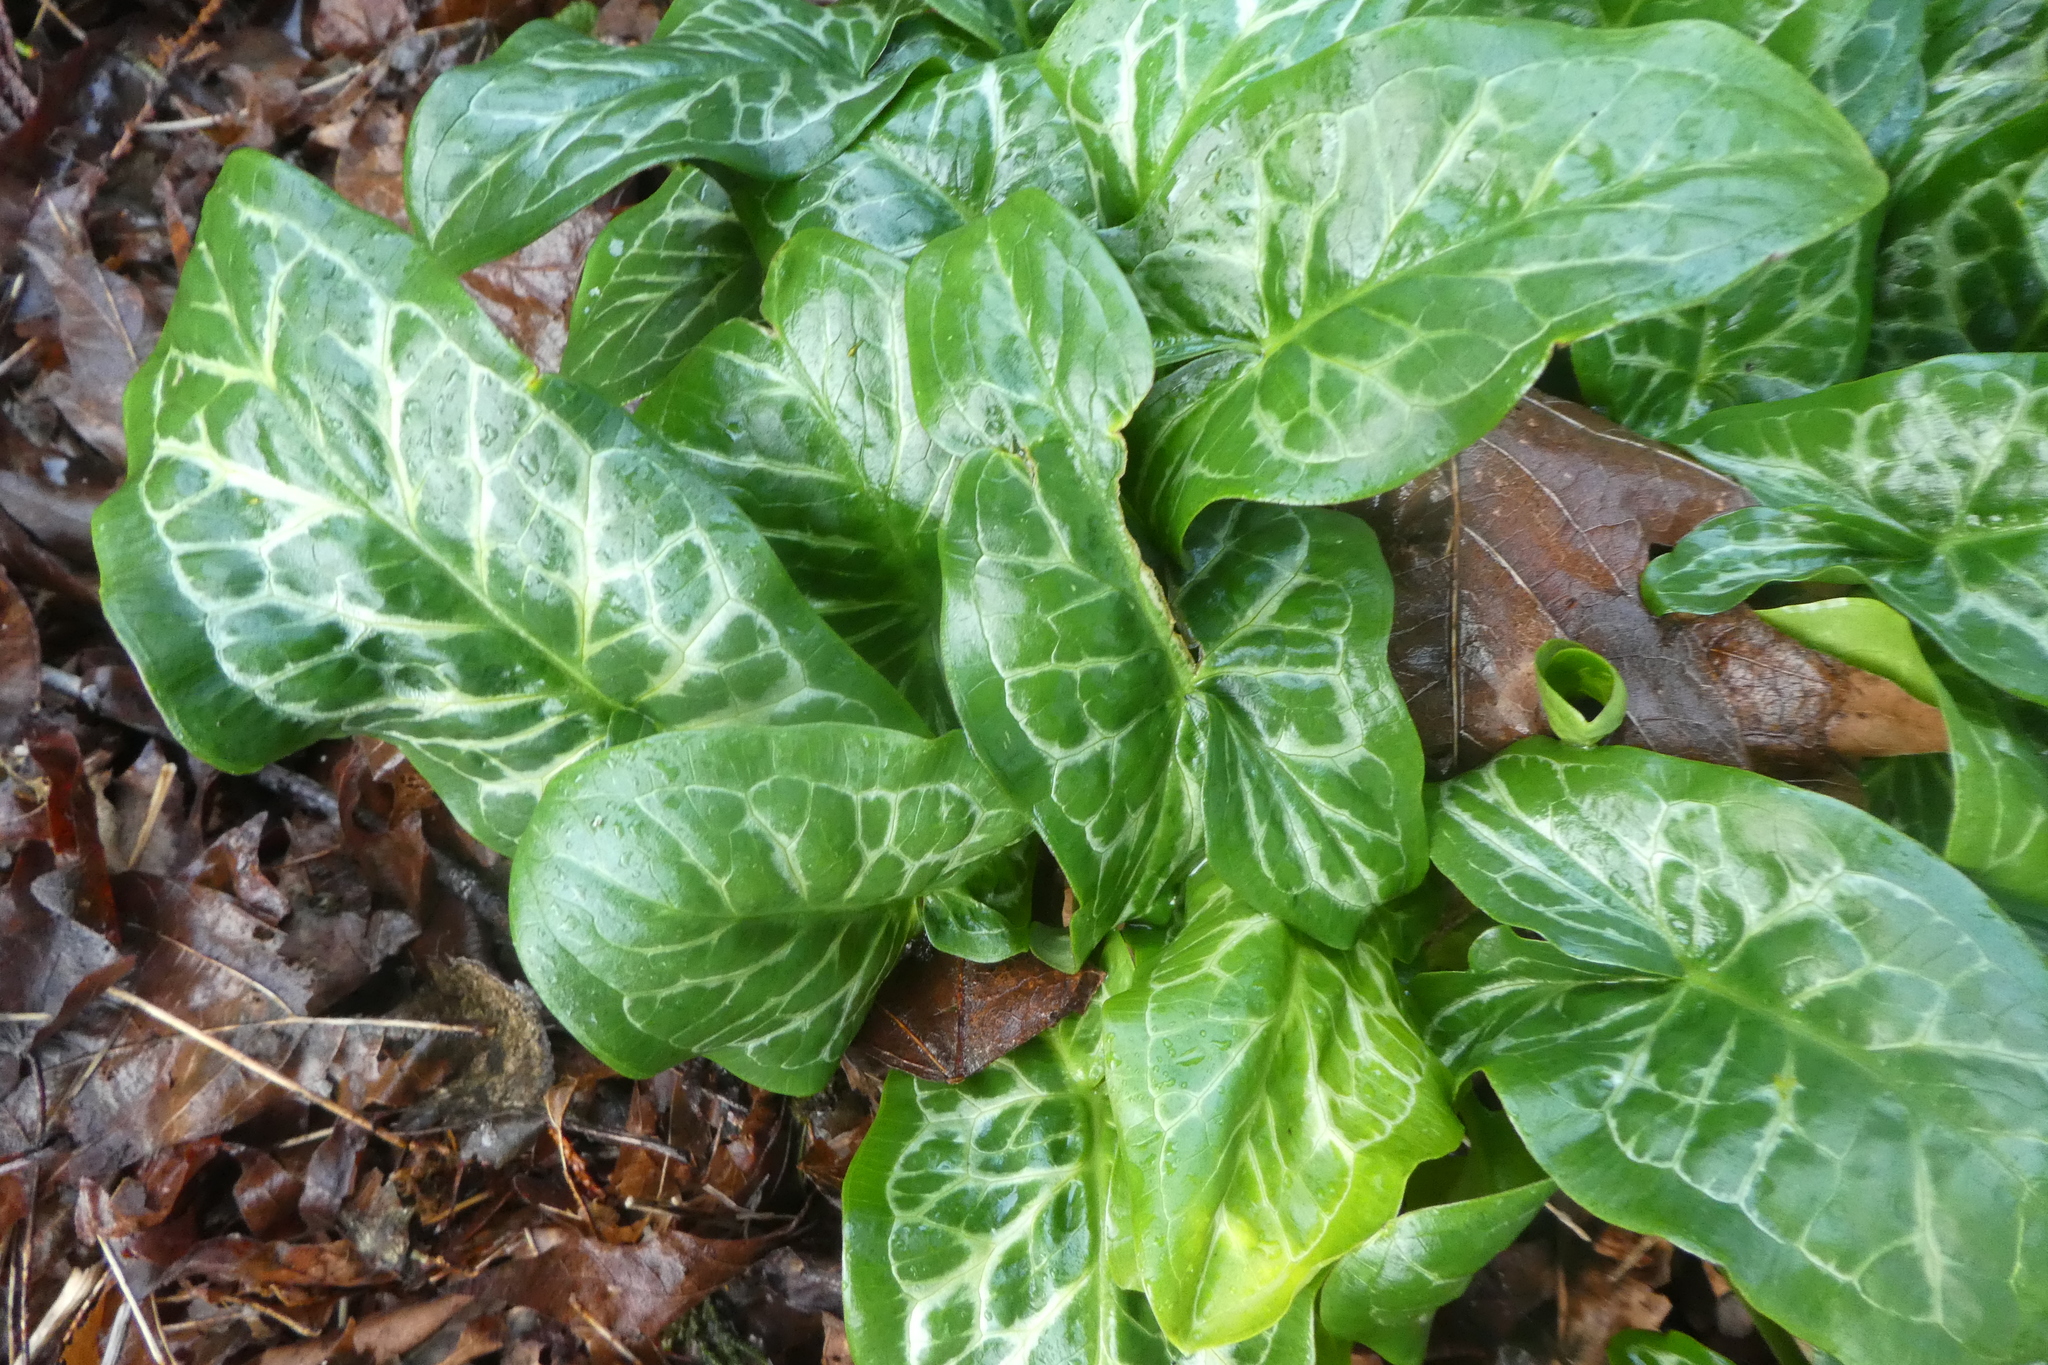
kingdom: Plantae
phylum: Tracheophyta
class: Liliopsida
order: Alismatales
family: Araceae
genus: Arum
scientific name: Arum italicum
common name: Italian lords-and-ladies
